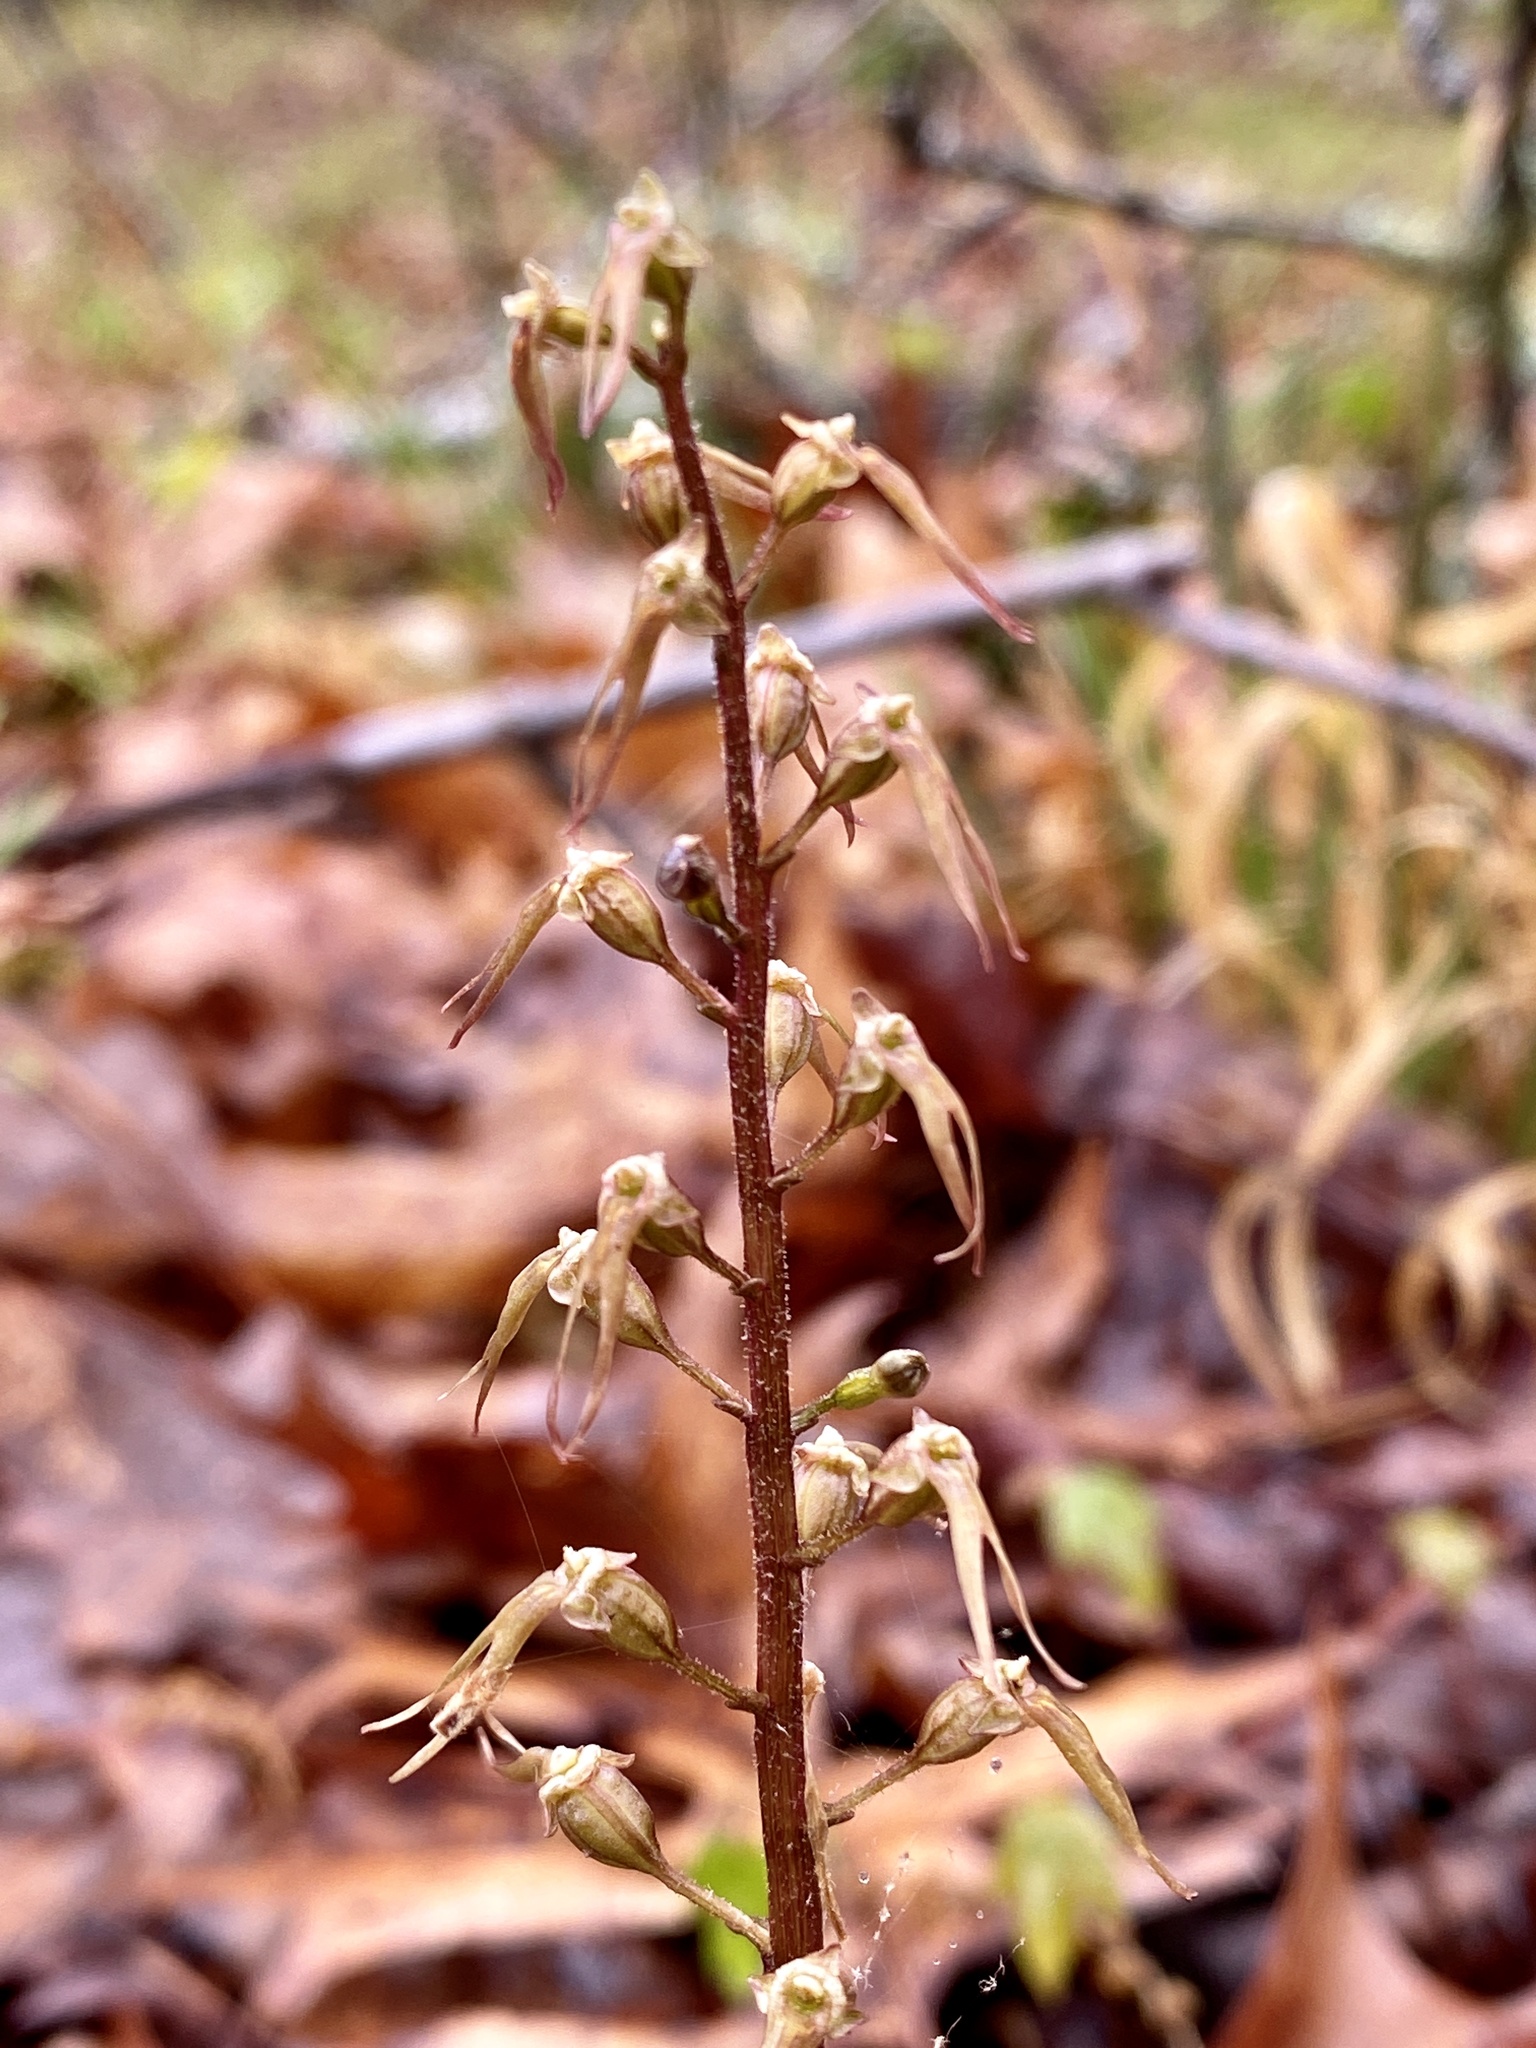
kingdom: Plantae
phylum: Tracheophyta
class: Liliopsida
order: Asparagales
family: Orchidaceae
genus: Neottia
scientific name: Neottia bifolia
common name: Southern twayblade
